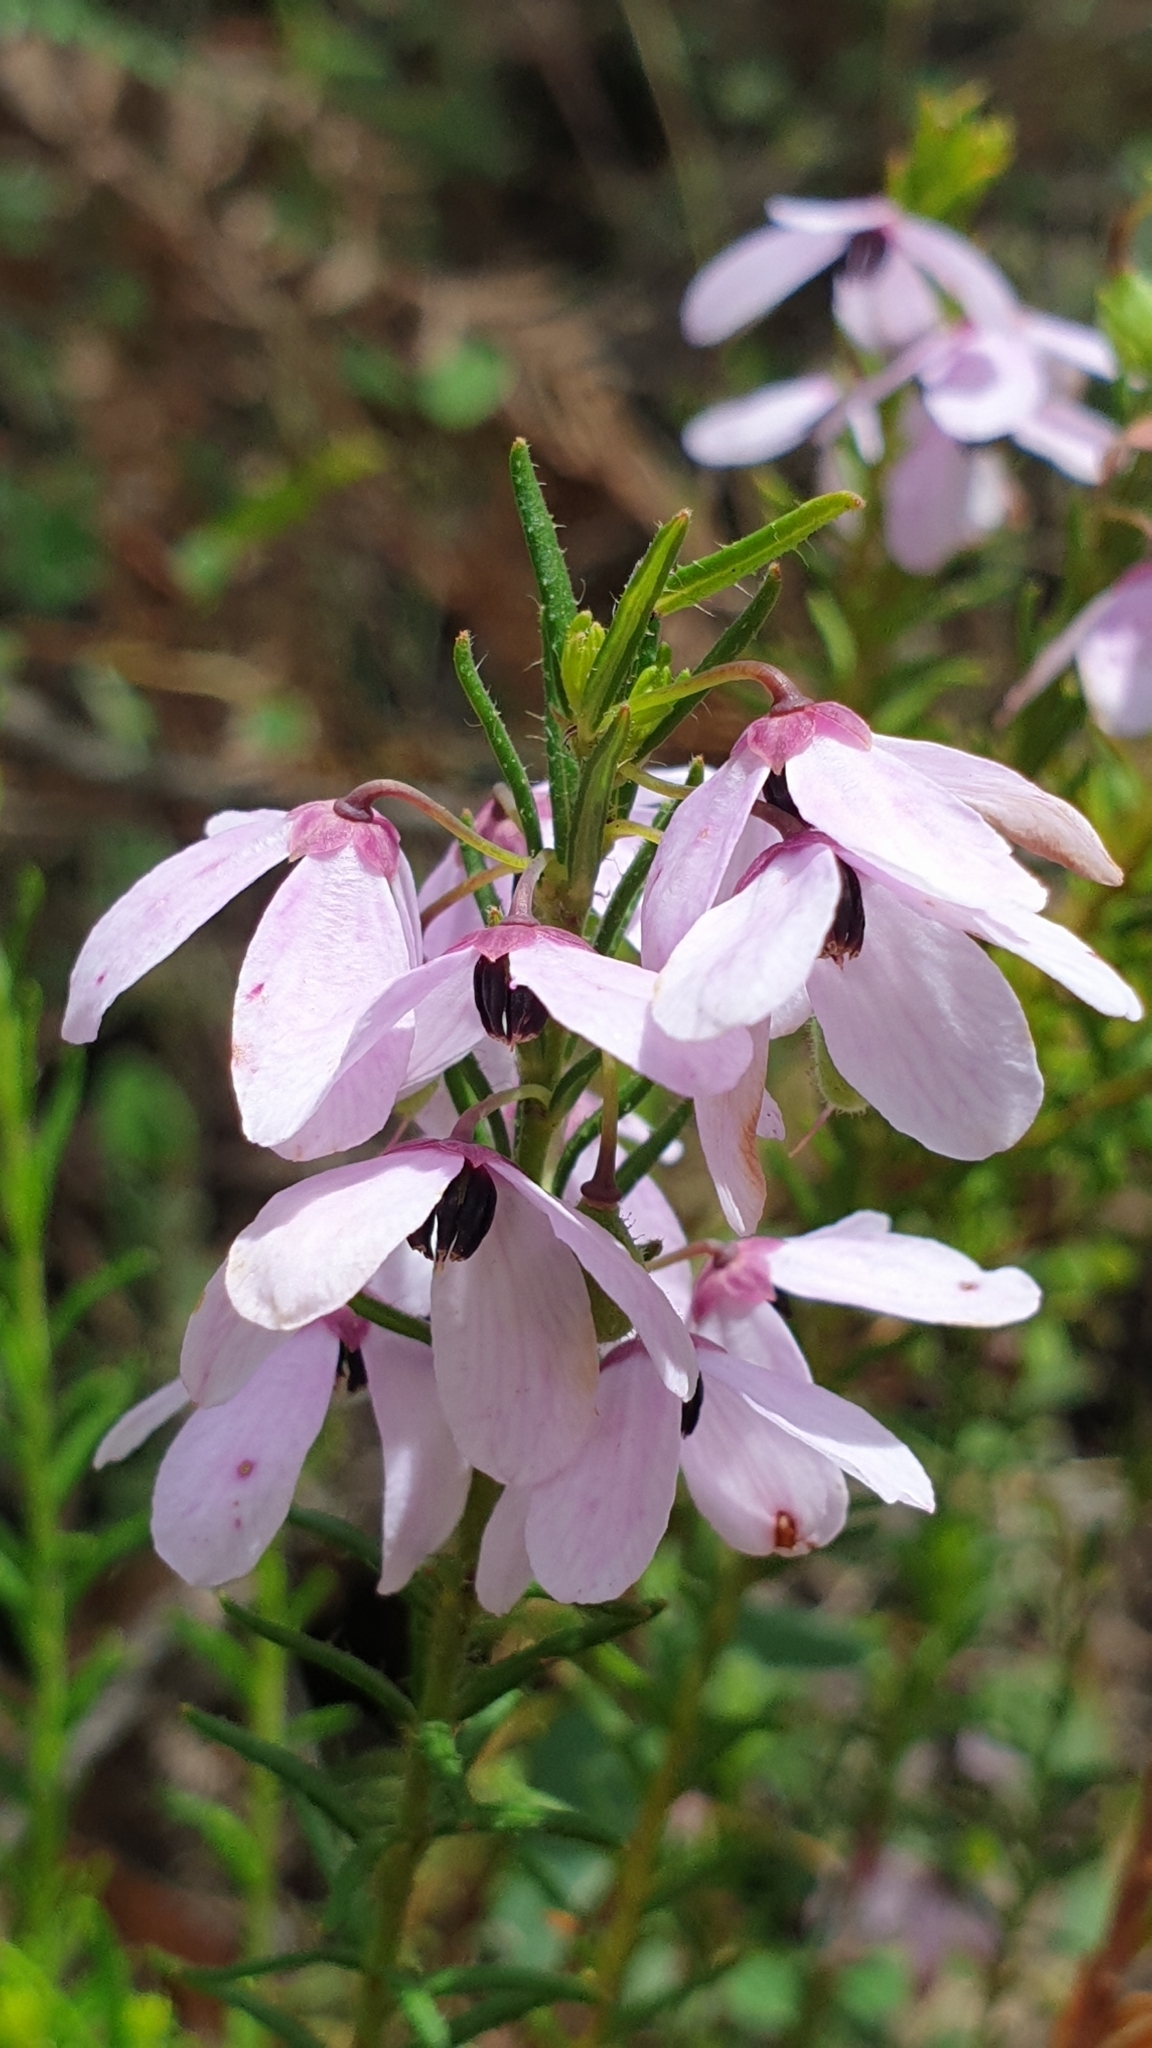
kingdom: Plantae
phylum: Tracheophyta
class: Magnoliopsida
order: Oxalidales
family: Elaeocarpaceae
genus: Tetratheca
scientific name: Tetratheca pilosa
